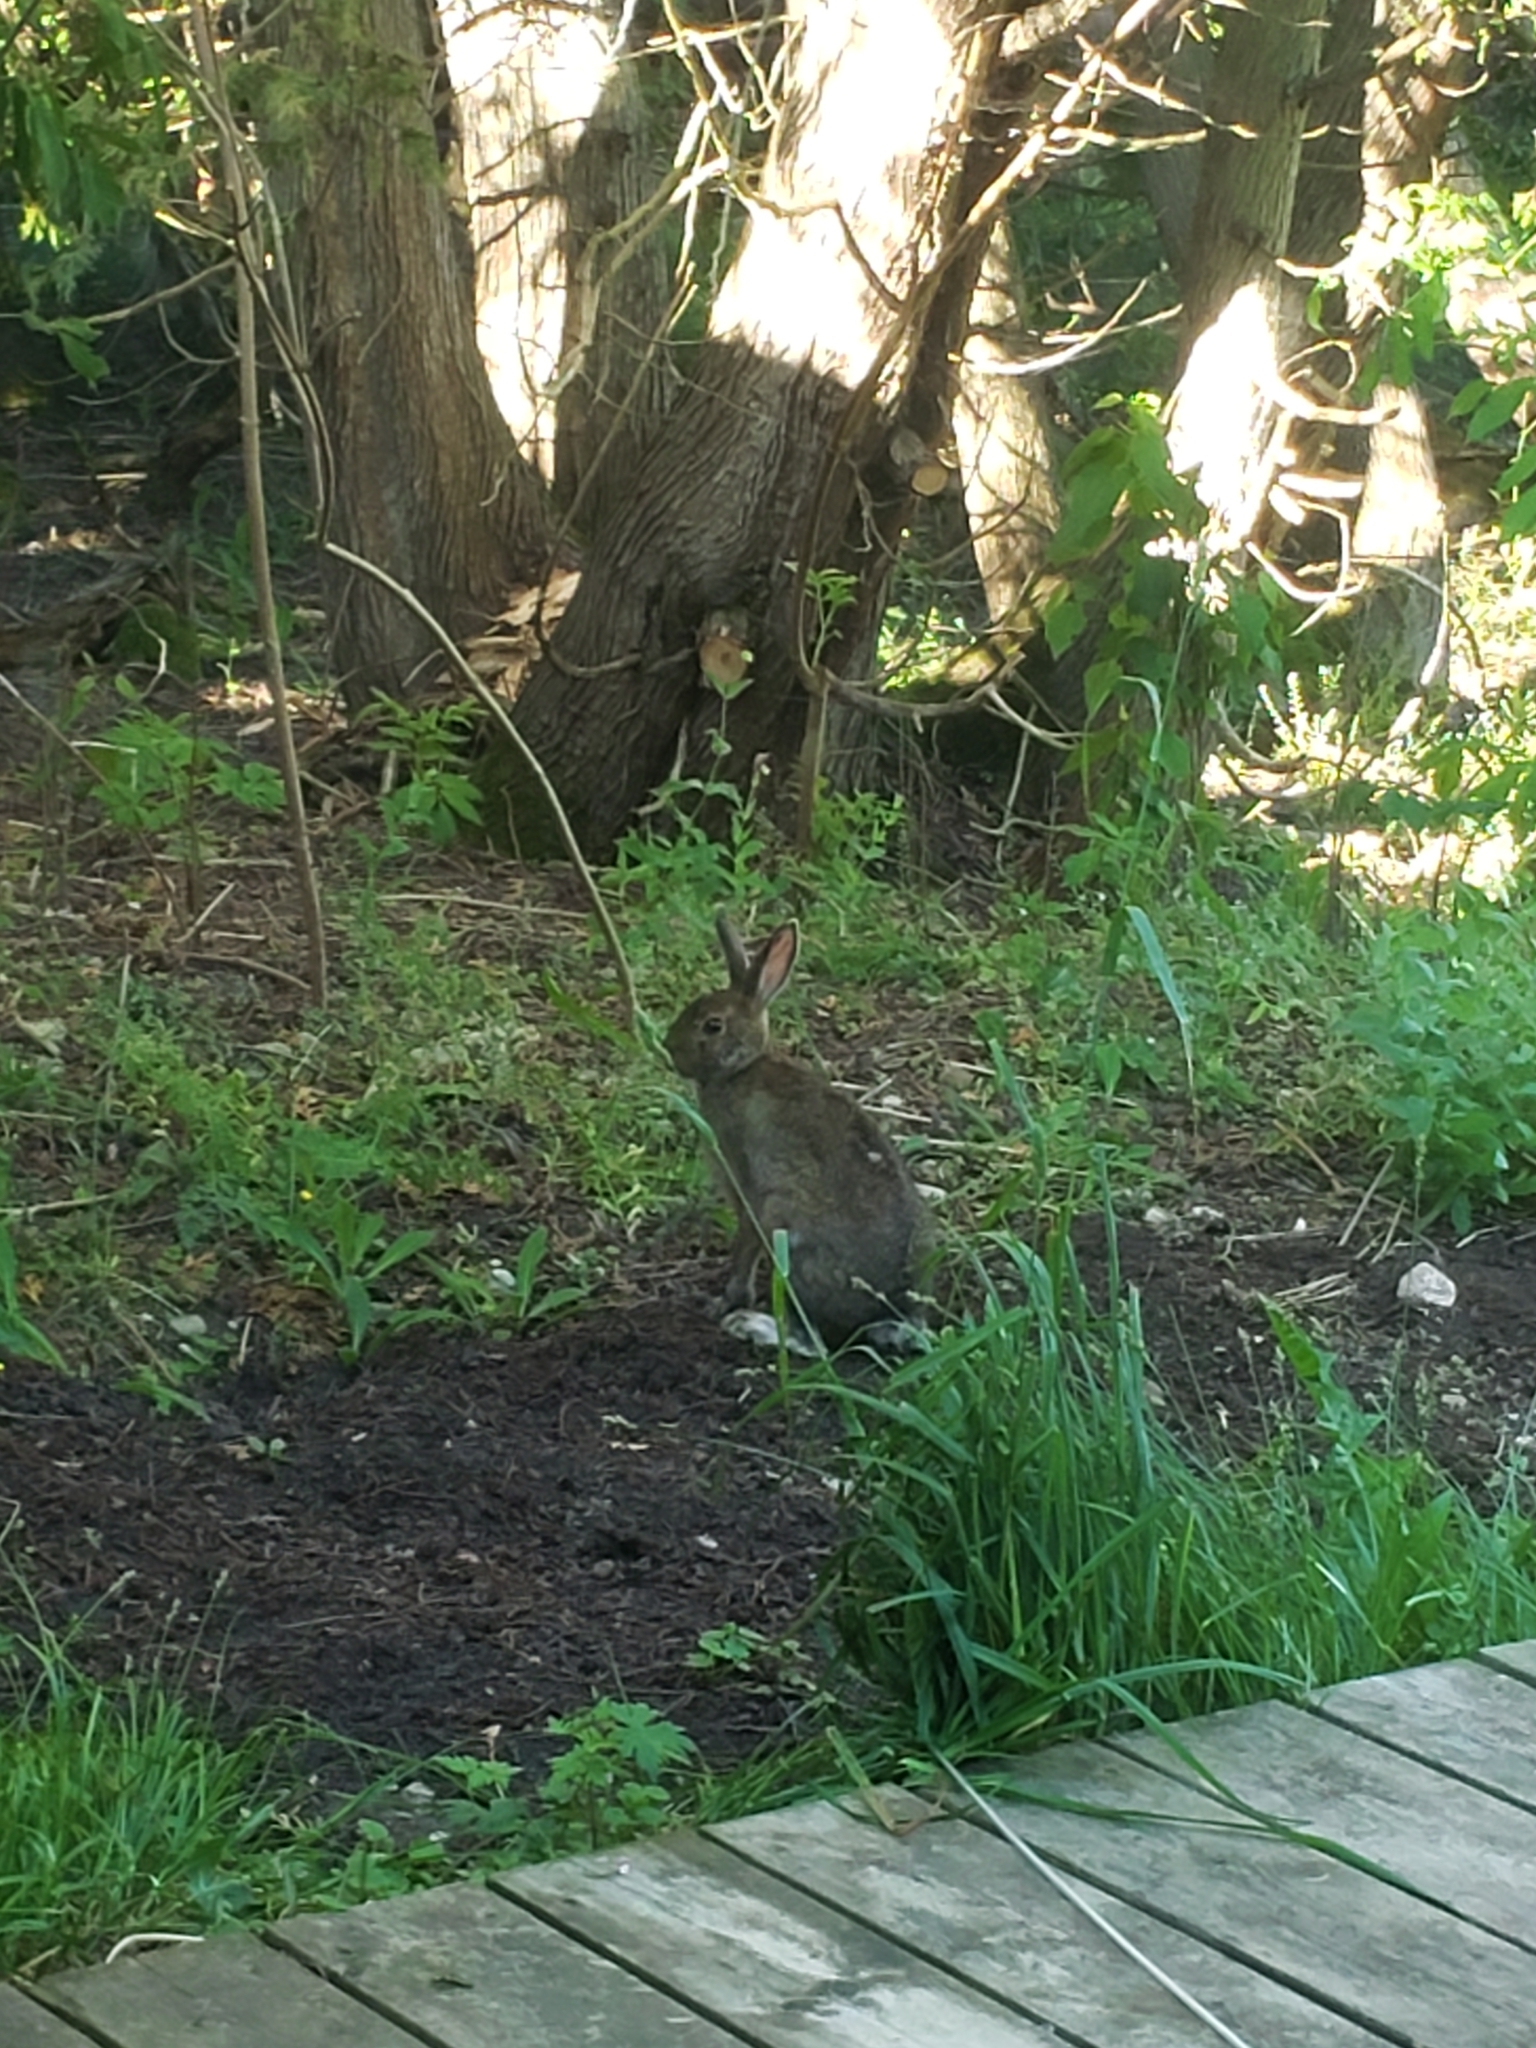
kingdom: Animalia
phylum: Chordata
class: Mammalia
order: Lagomorpha
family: Leporidae
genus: Lepus
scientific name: Lepus americanus
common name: Snowshoe hare
